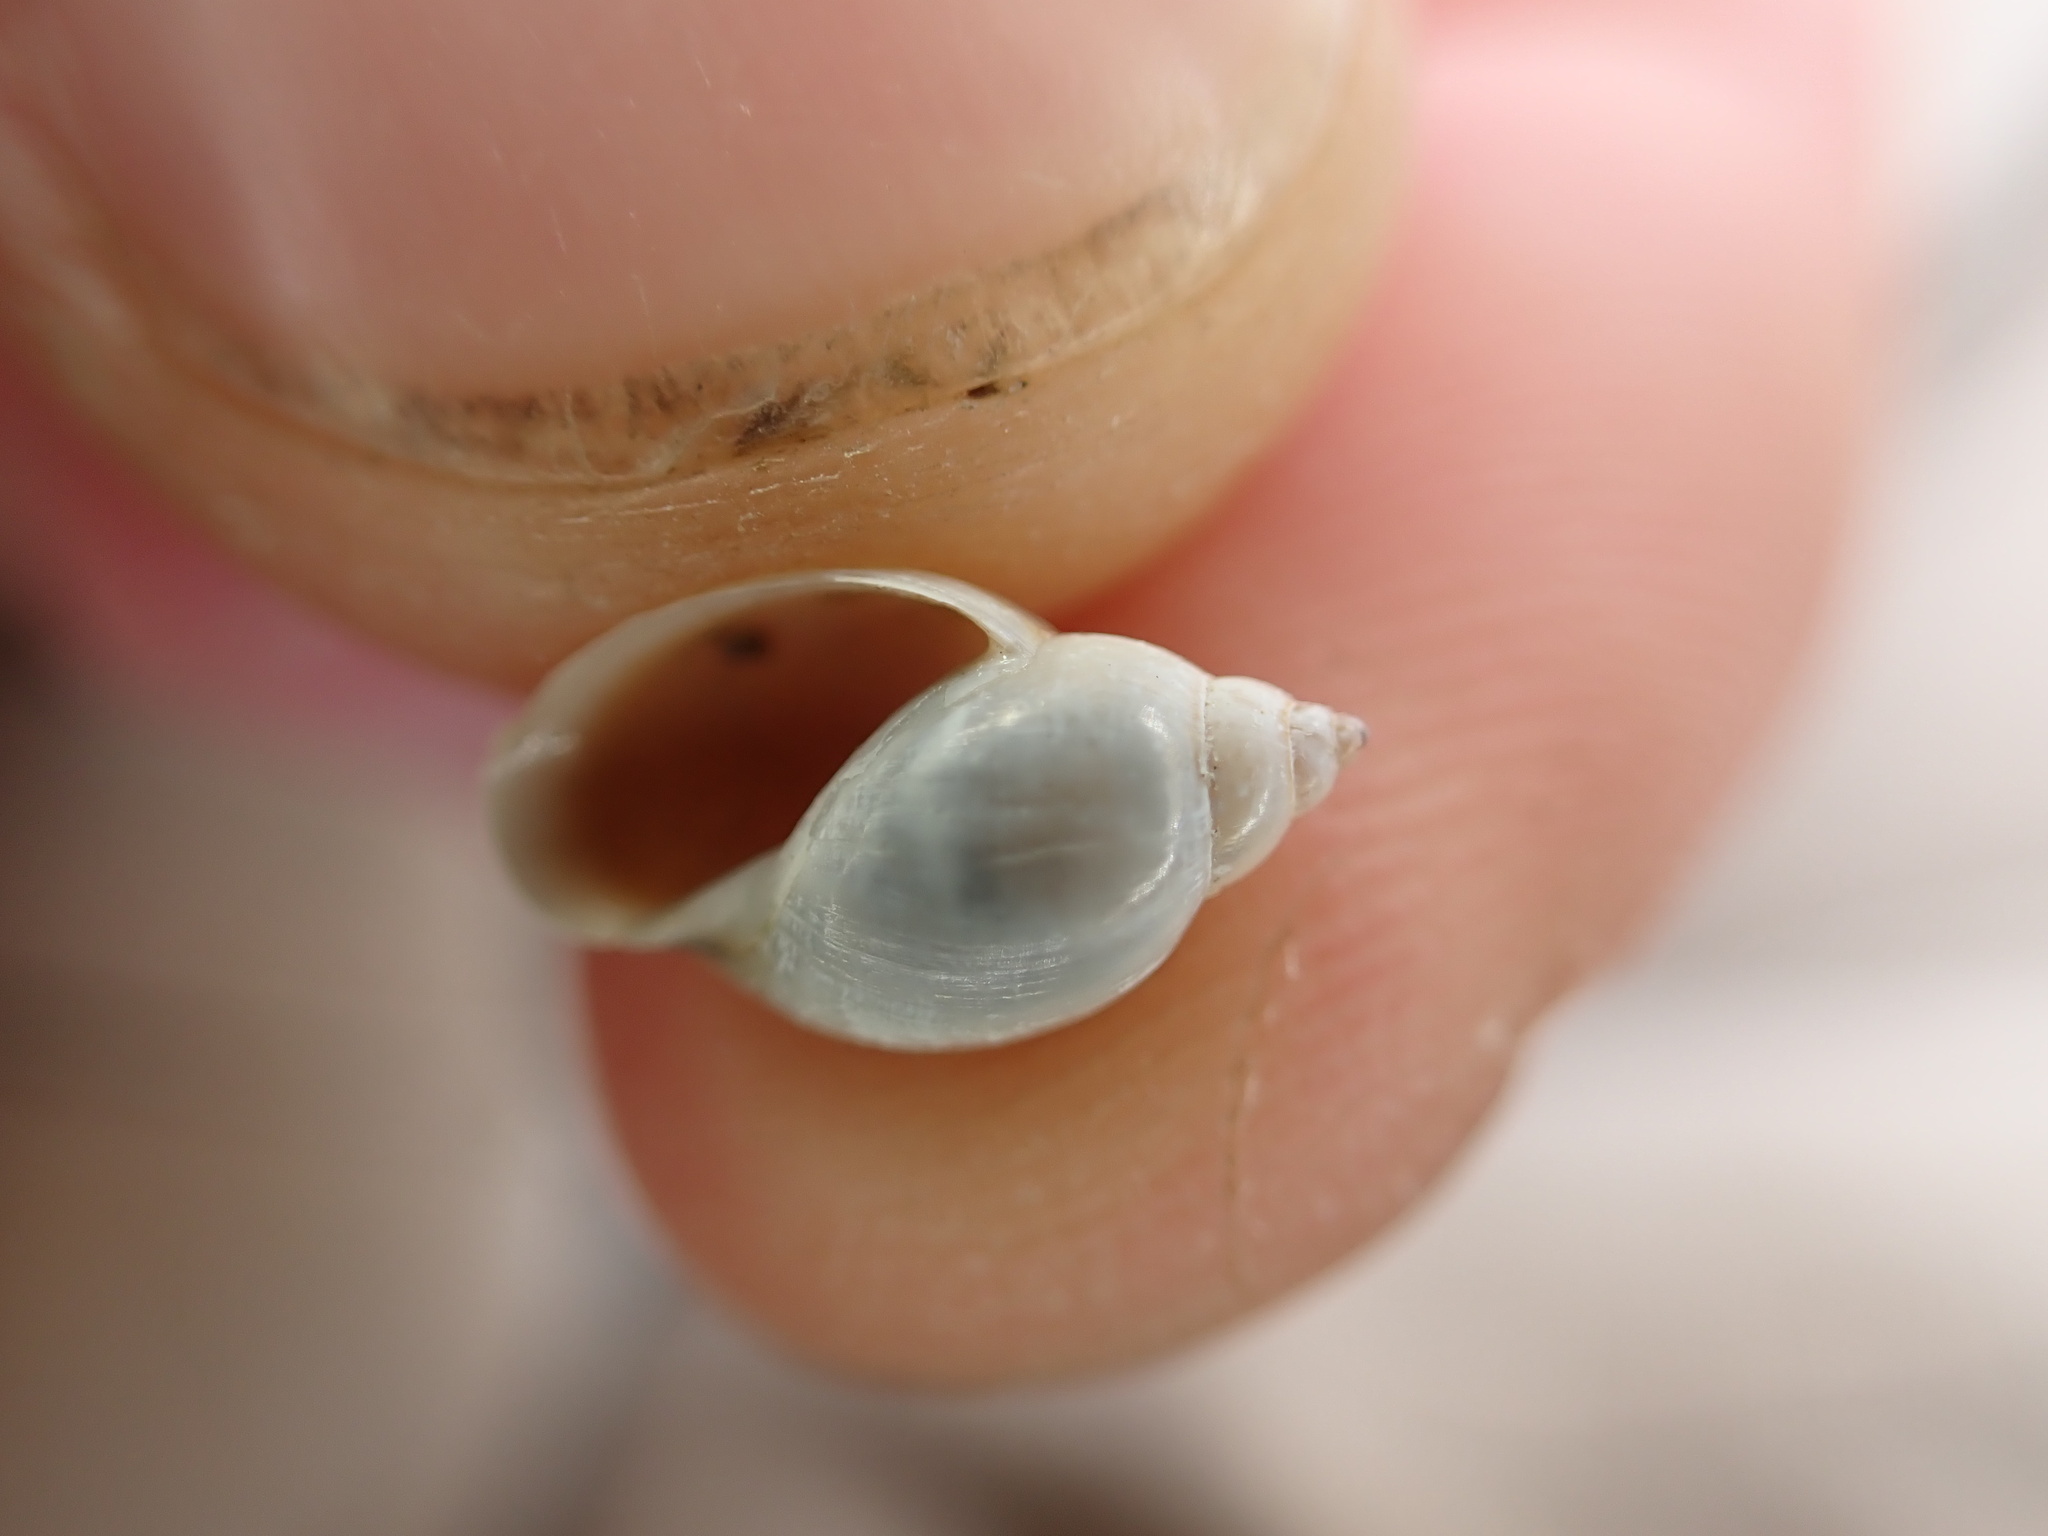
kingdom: Animalia
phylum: Mollusca
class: Gastropoda
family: Physidae
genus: Physella
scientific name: Physella acuta
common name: European physa
